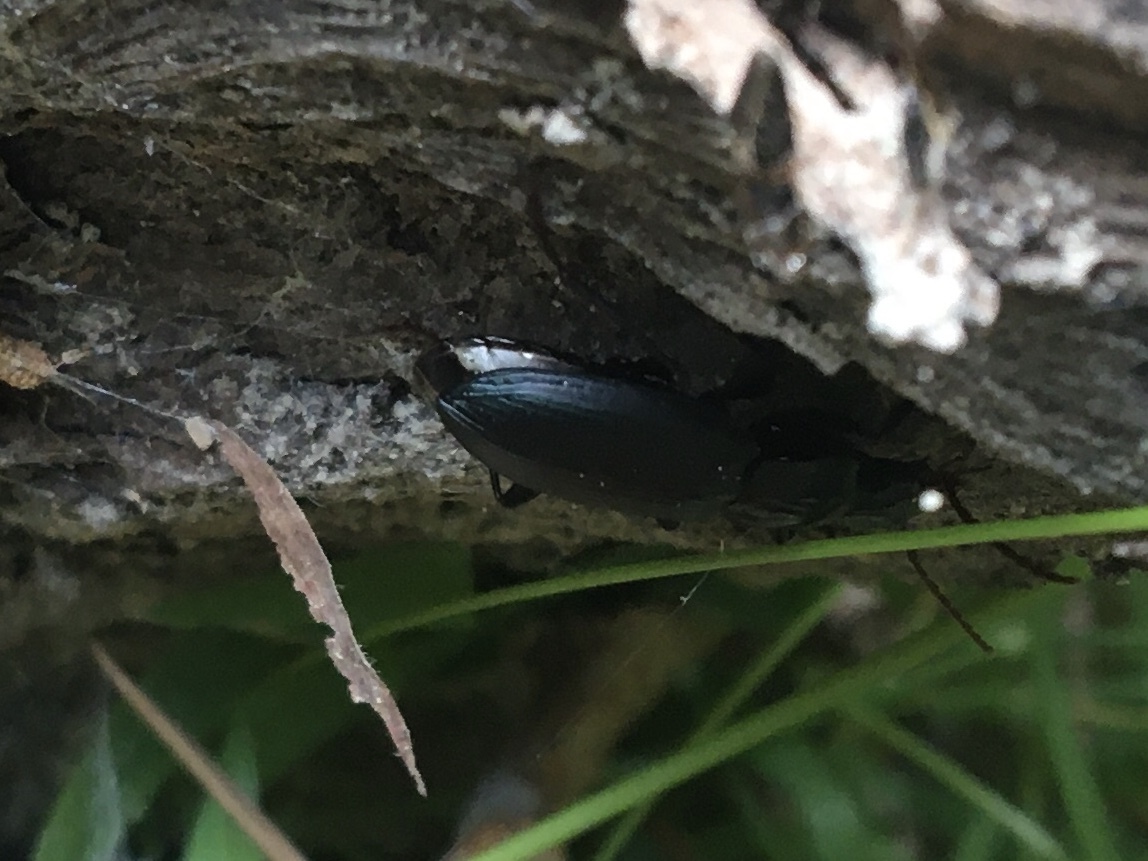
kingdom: Animalia
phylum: Arthropoda
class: Insecta
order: Coleoptera
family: Carabidae
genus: Laemostenus
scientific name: Laemostenus complanatus
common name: Cosmopolitan ground beetle
